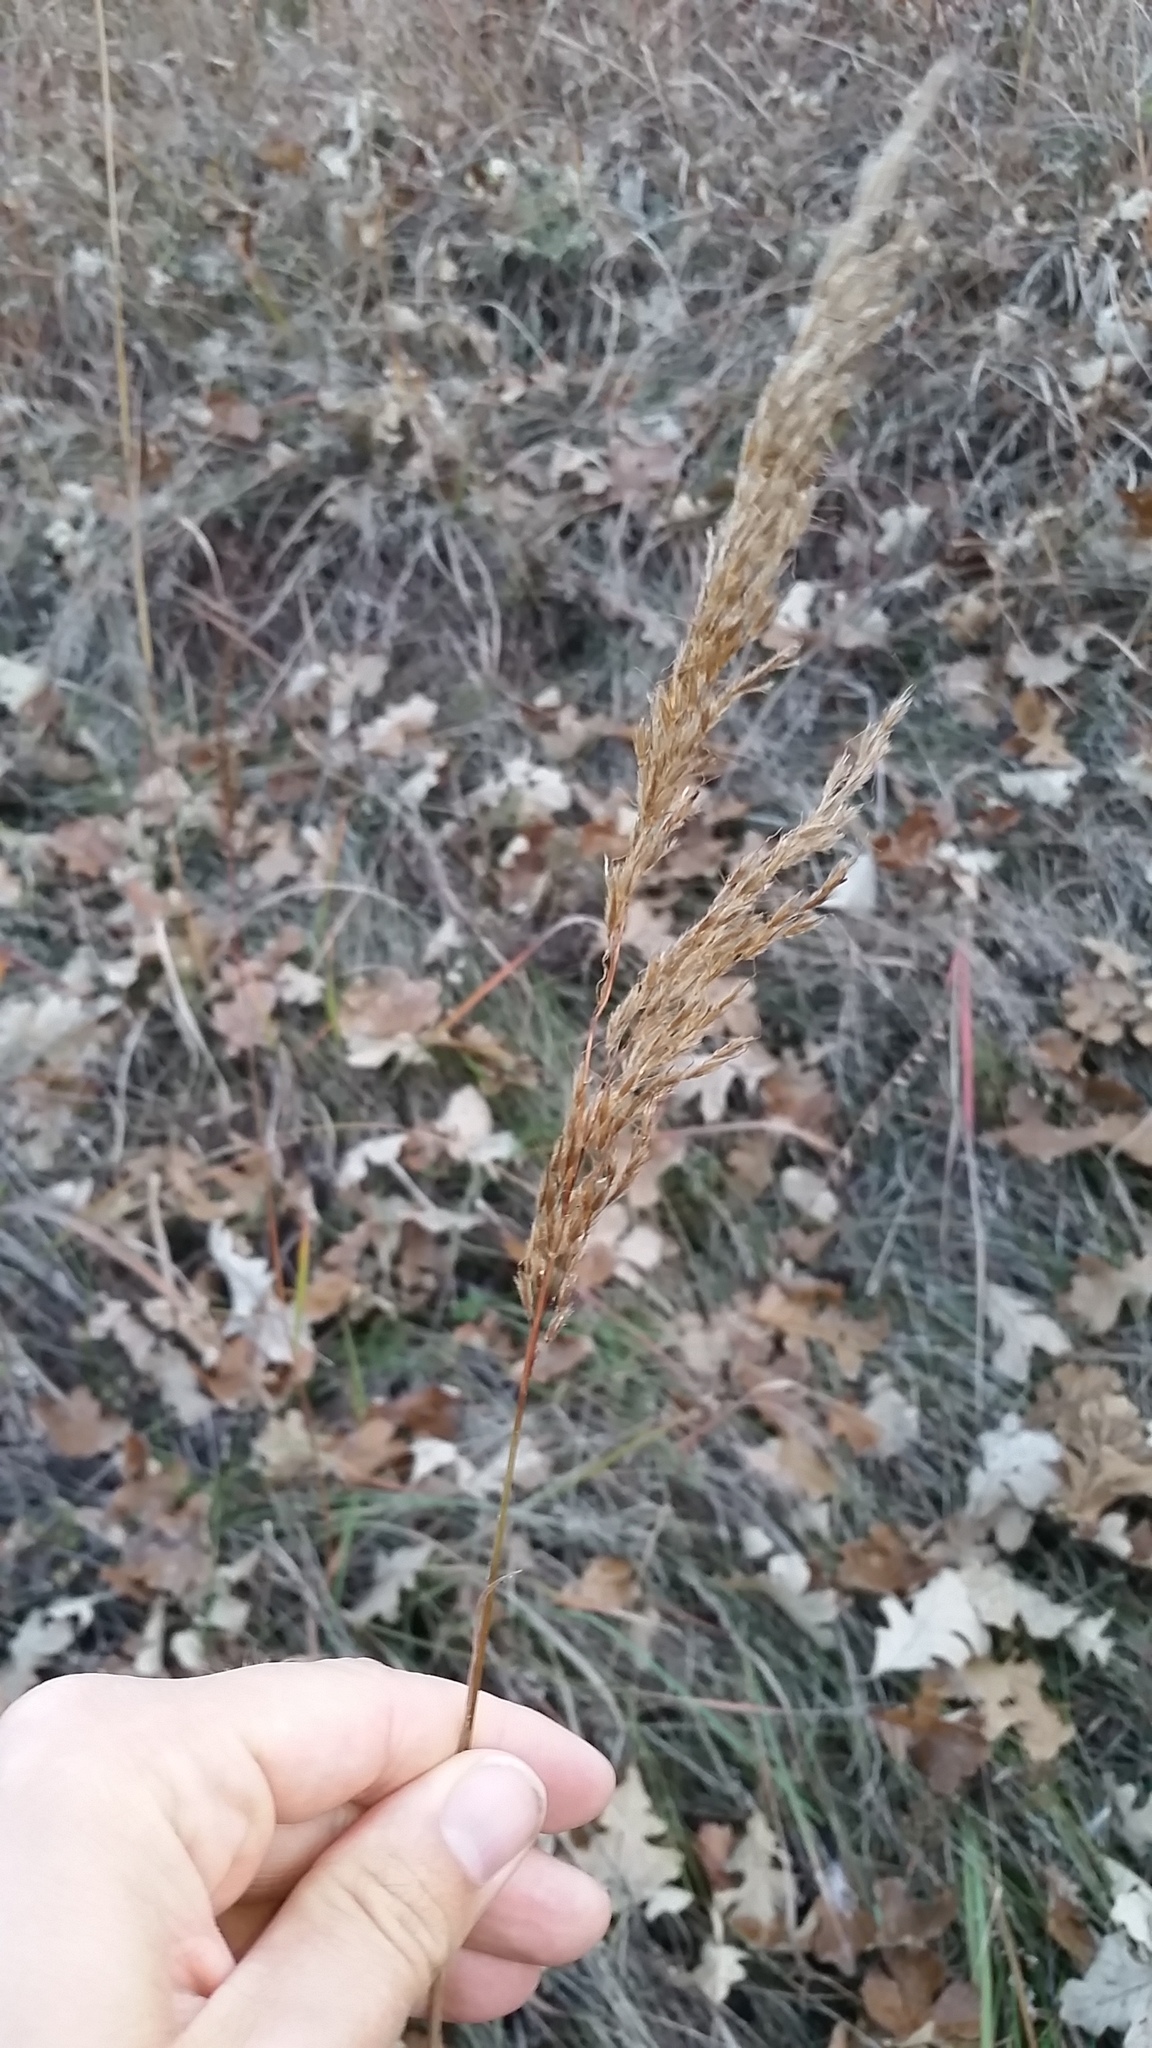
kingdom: Plantae
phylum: Tracheophyta
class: Liliopsida
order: Poales
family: Poaceae
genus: Sorghastrum
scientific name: Sorghastrum nutans
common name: Indian grass
